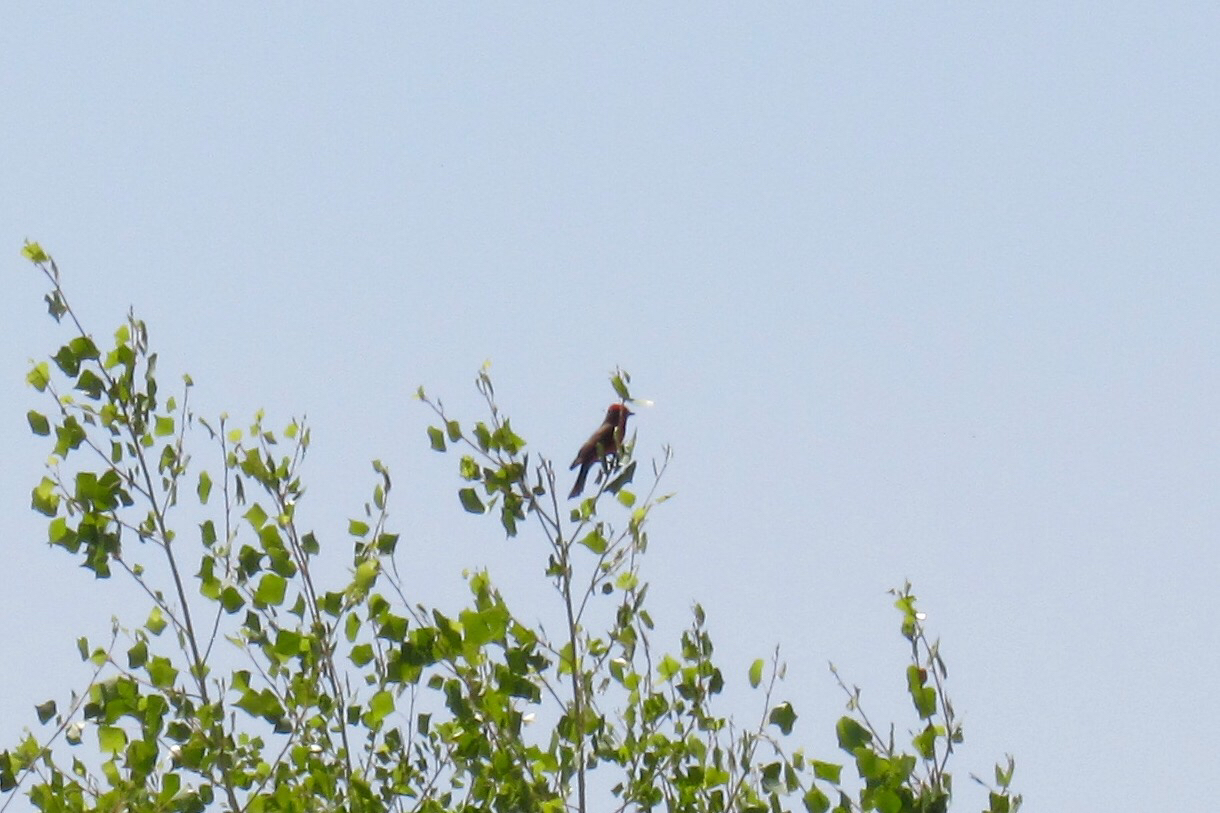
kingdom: Animalia
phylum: Chordata
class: Aves
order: Passeriformes
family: Tyrannidae
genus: Pyrocephalus
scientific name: Pyrocephalus rubinus
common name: Vermilion flycatcher
